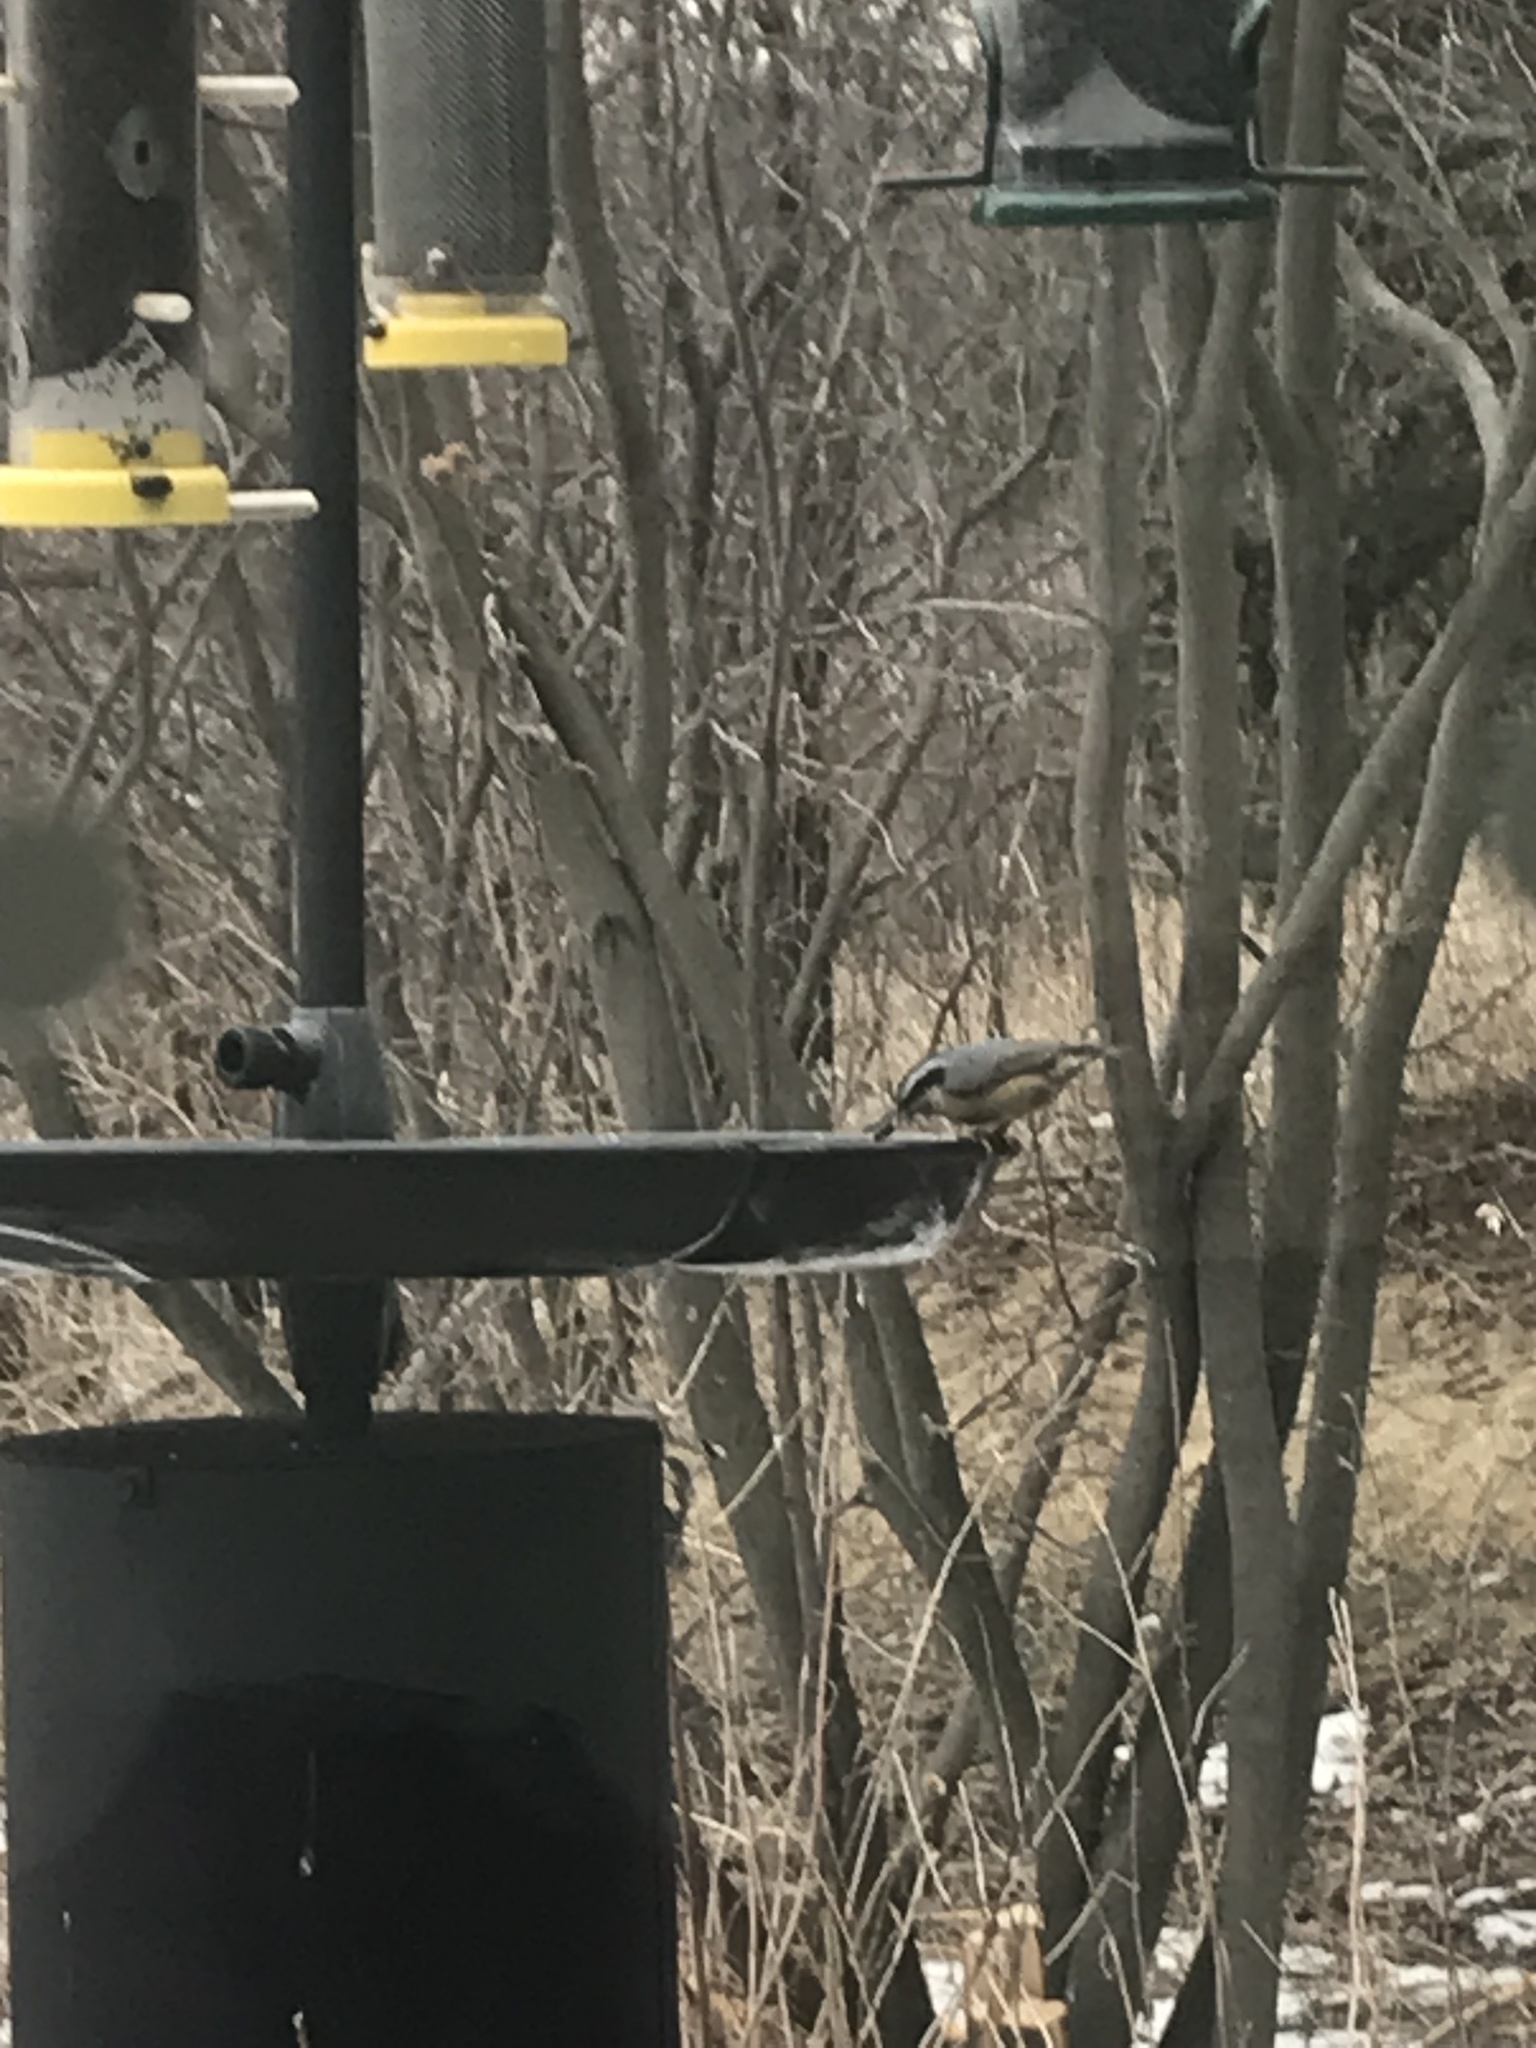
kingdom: Animalia
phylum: Chordata
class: Aves
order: Passeriformes
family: Sittidae
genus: Sitta
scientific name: Sitta canadensis
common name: Red-breasted nuthatch
